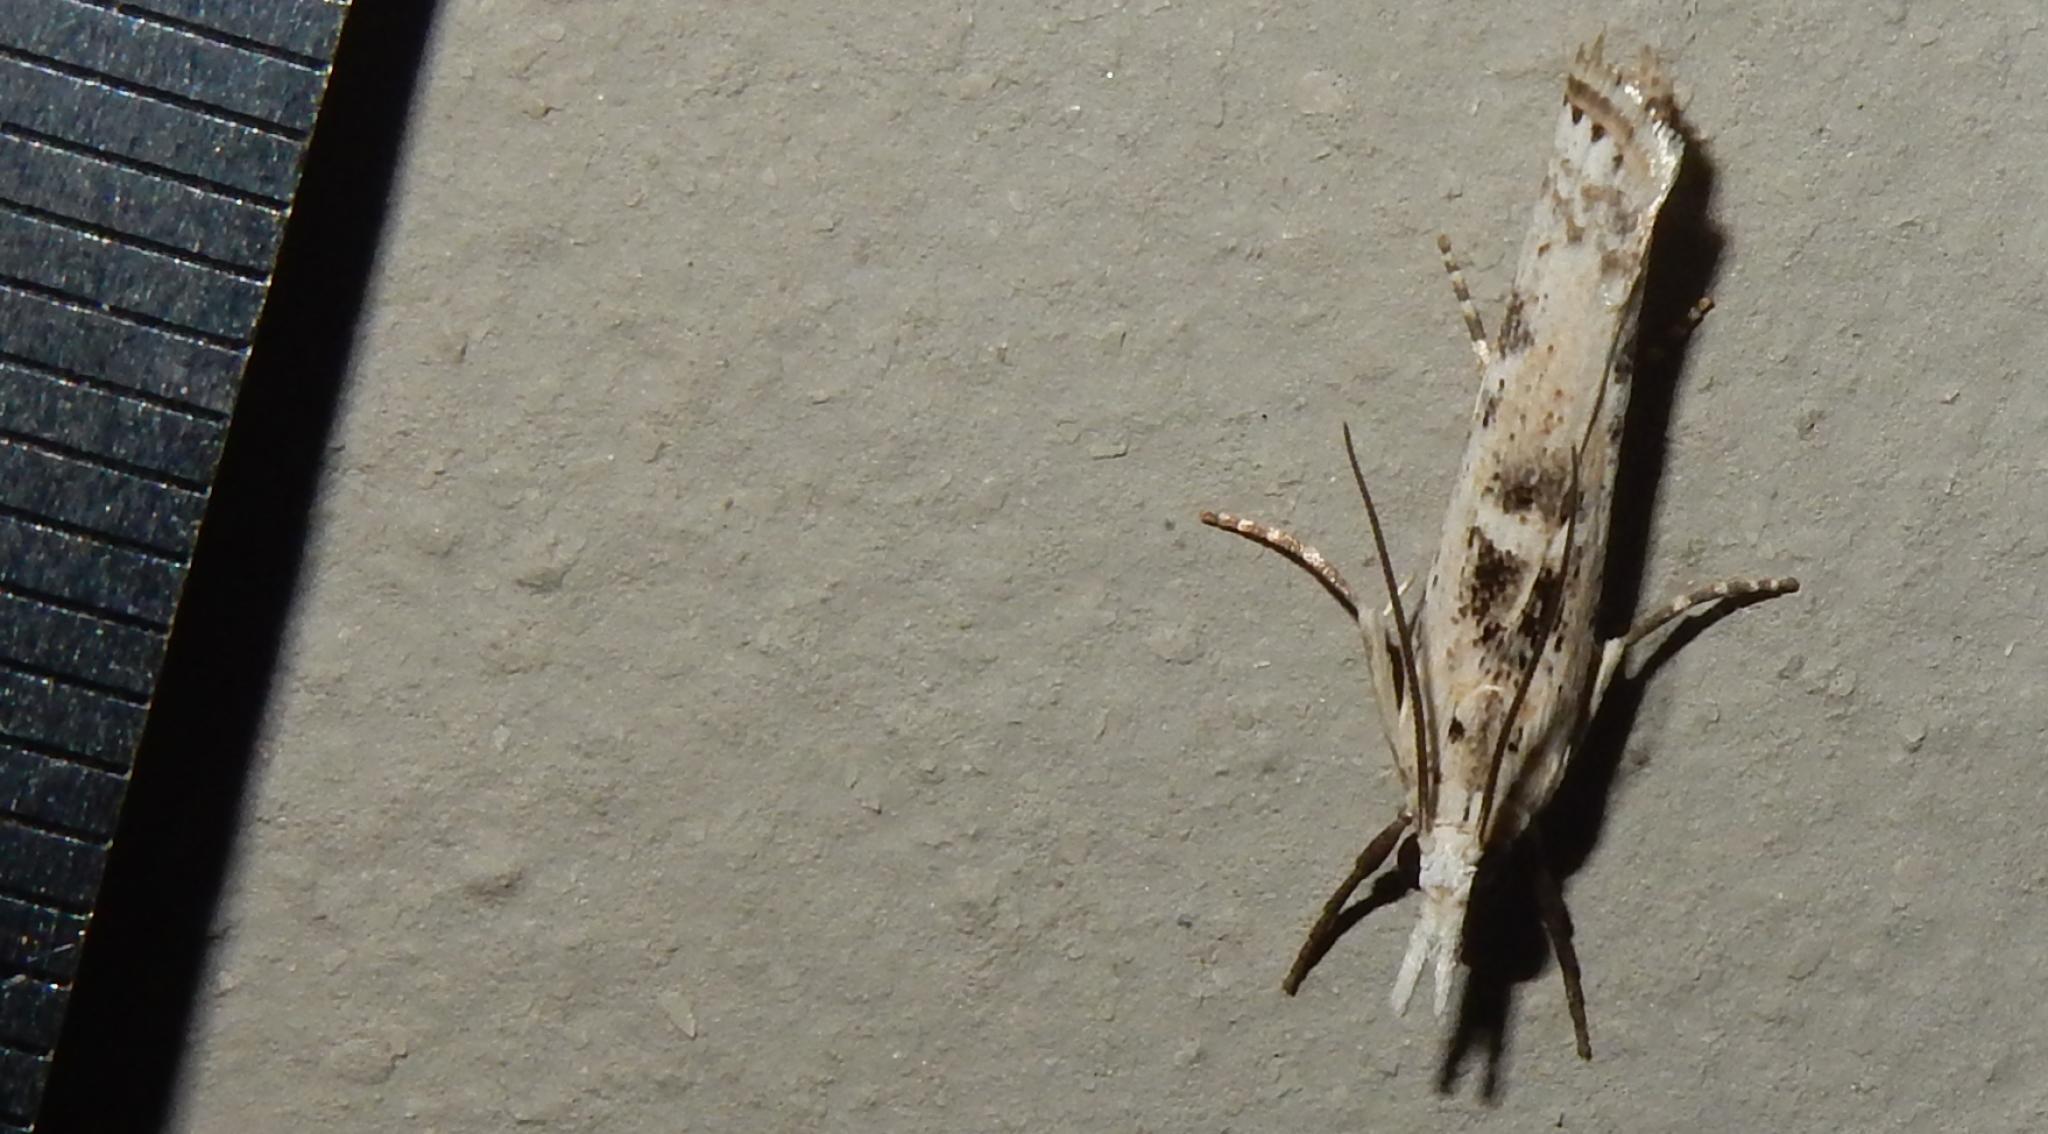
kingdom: Animalia
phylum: Arthropoda
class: Insecta
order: Lepidoptera
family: Crambidae
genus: Crambus
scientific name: Crambus sparsellus
